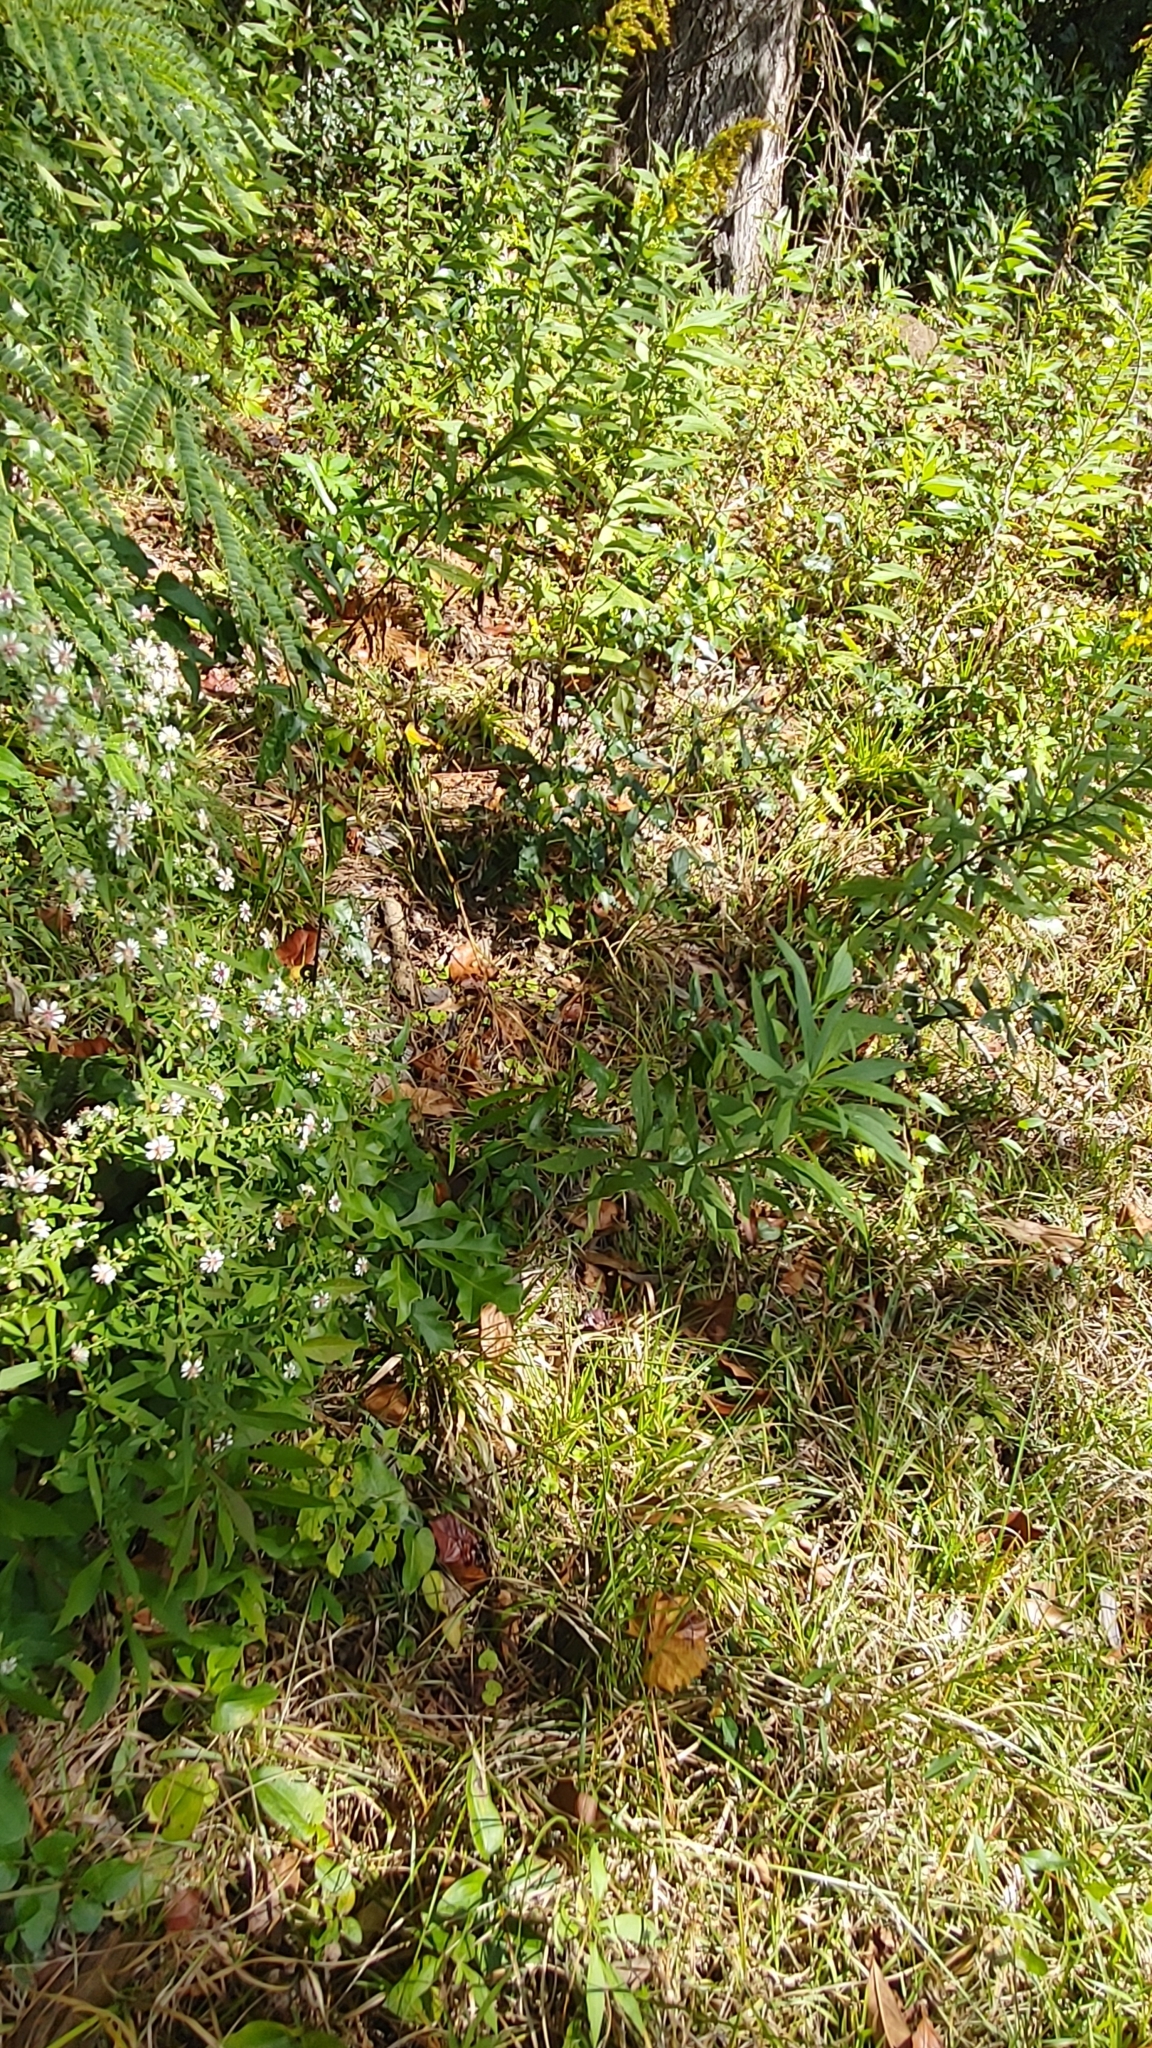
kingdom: Plantae
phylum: Tracheophyta
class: Magnoliopsida
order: Asterales
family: Asteraceae
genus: Symphyotrichum
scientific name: Symphyotrichum lateriflorum
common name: Calico aster
